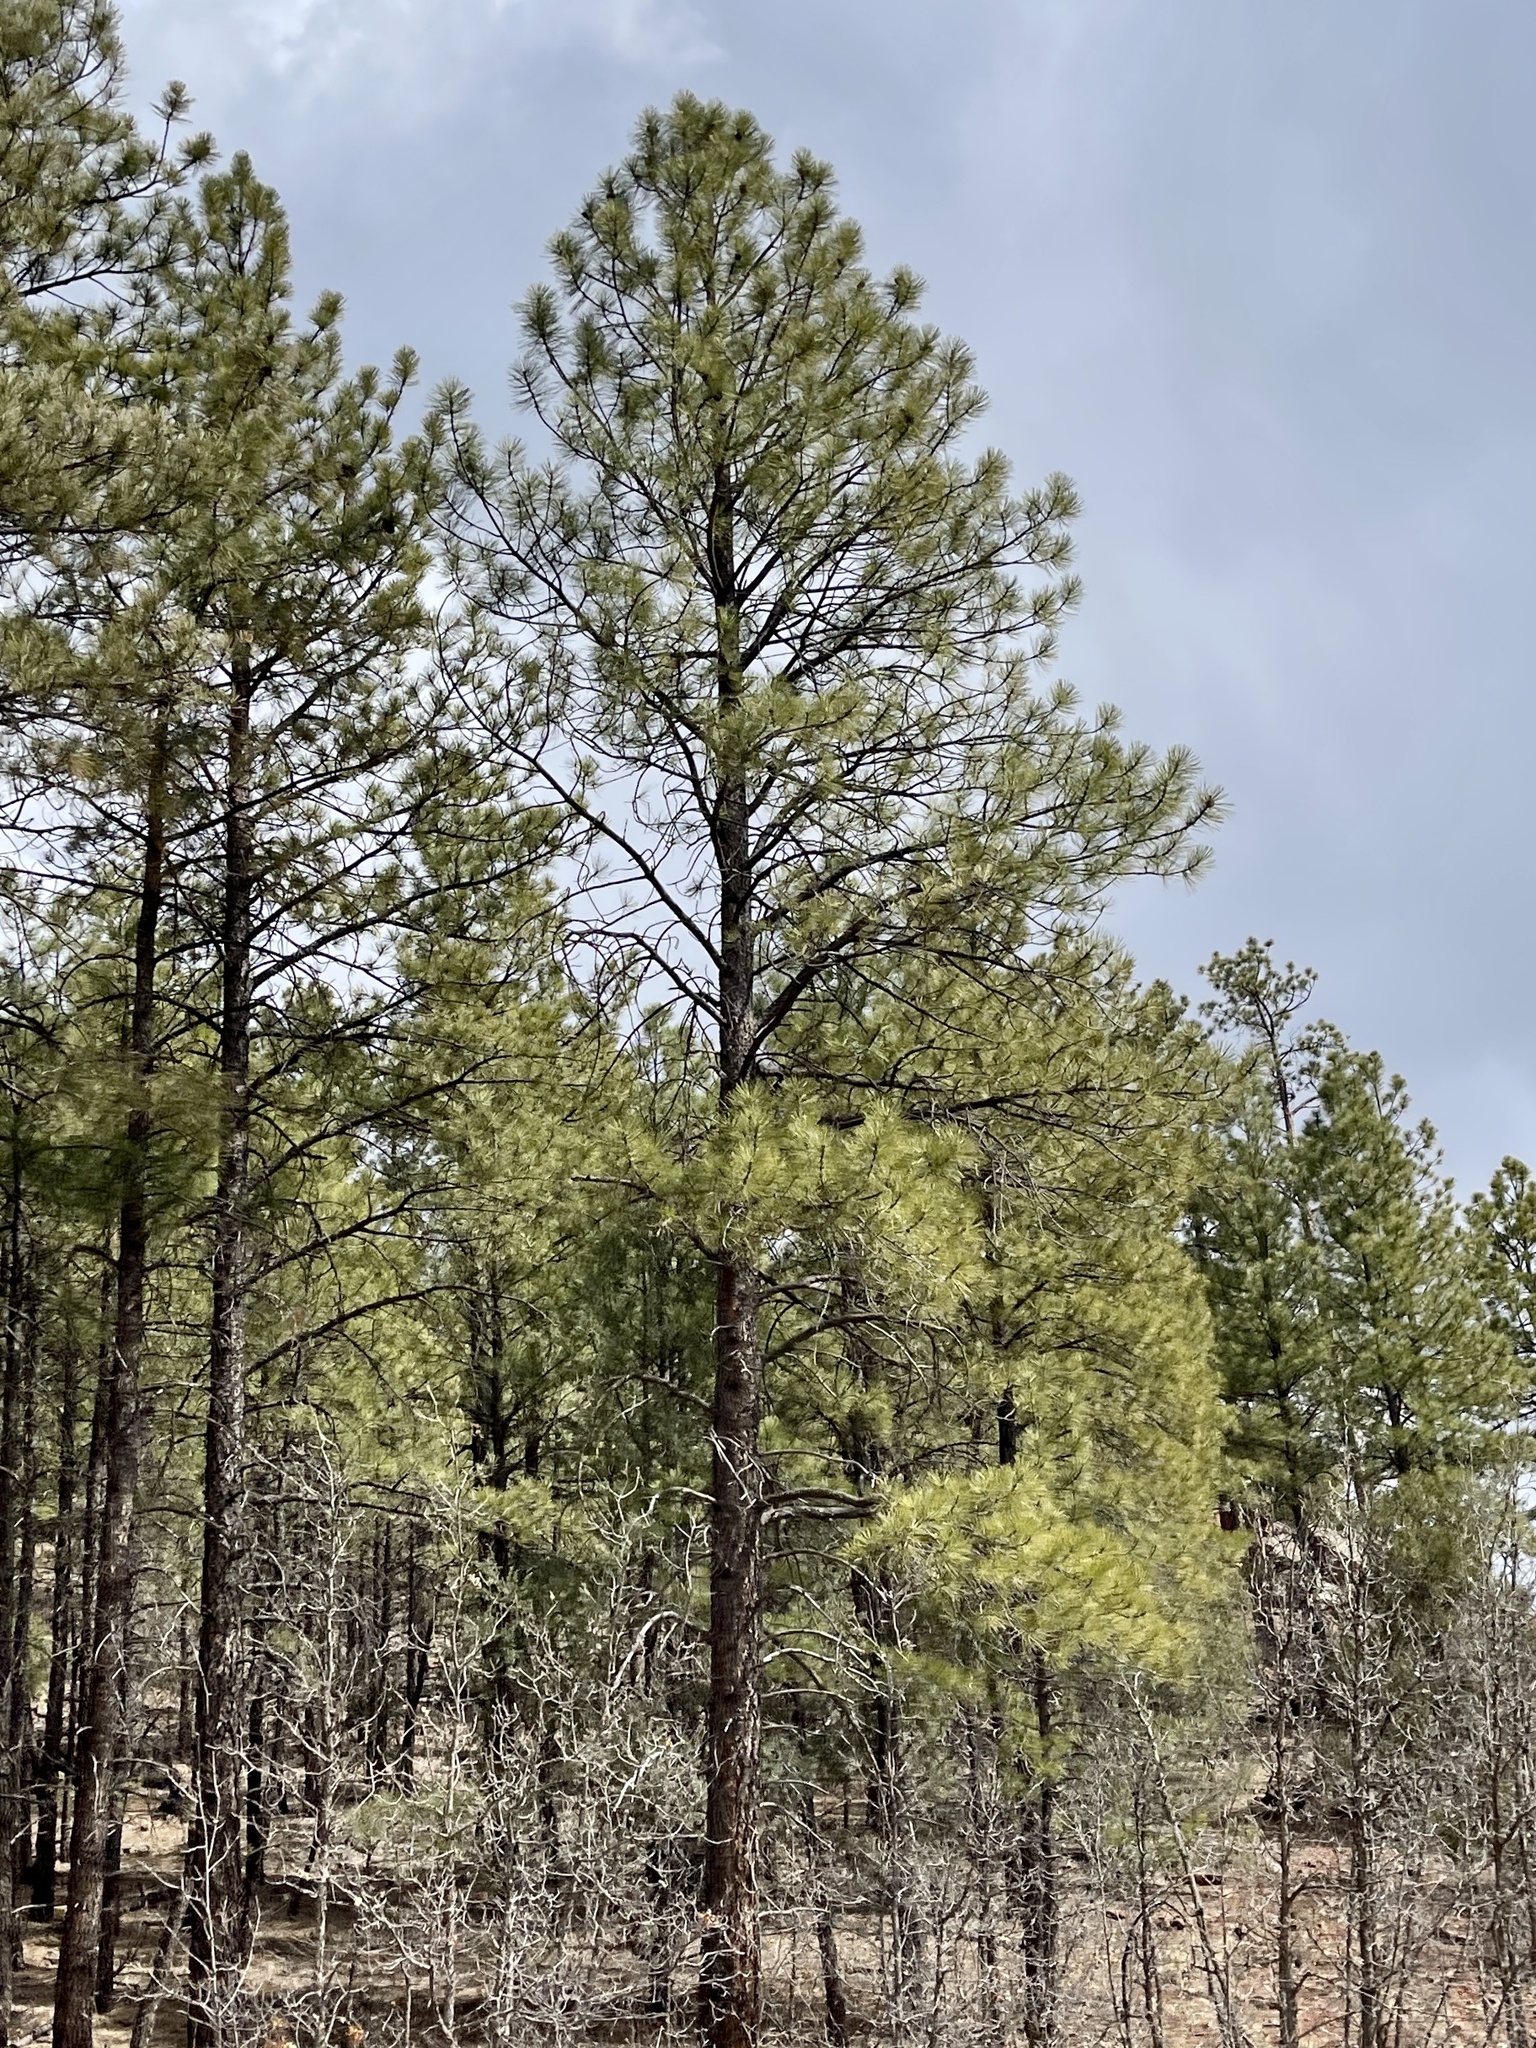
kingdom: Plantae
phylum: Tracheophyta
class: Pinopsida
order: Pinales
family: Pinaceae
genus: Pinus
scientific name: Pinus ponderosa
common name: Western yellow-pine
